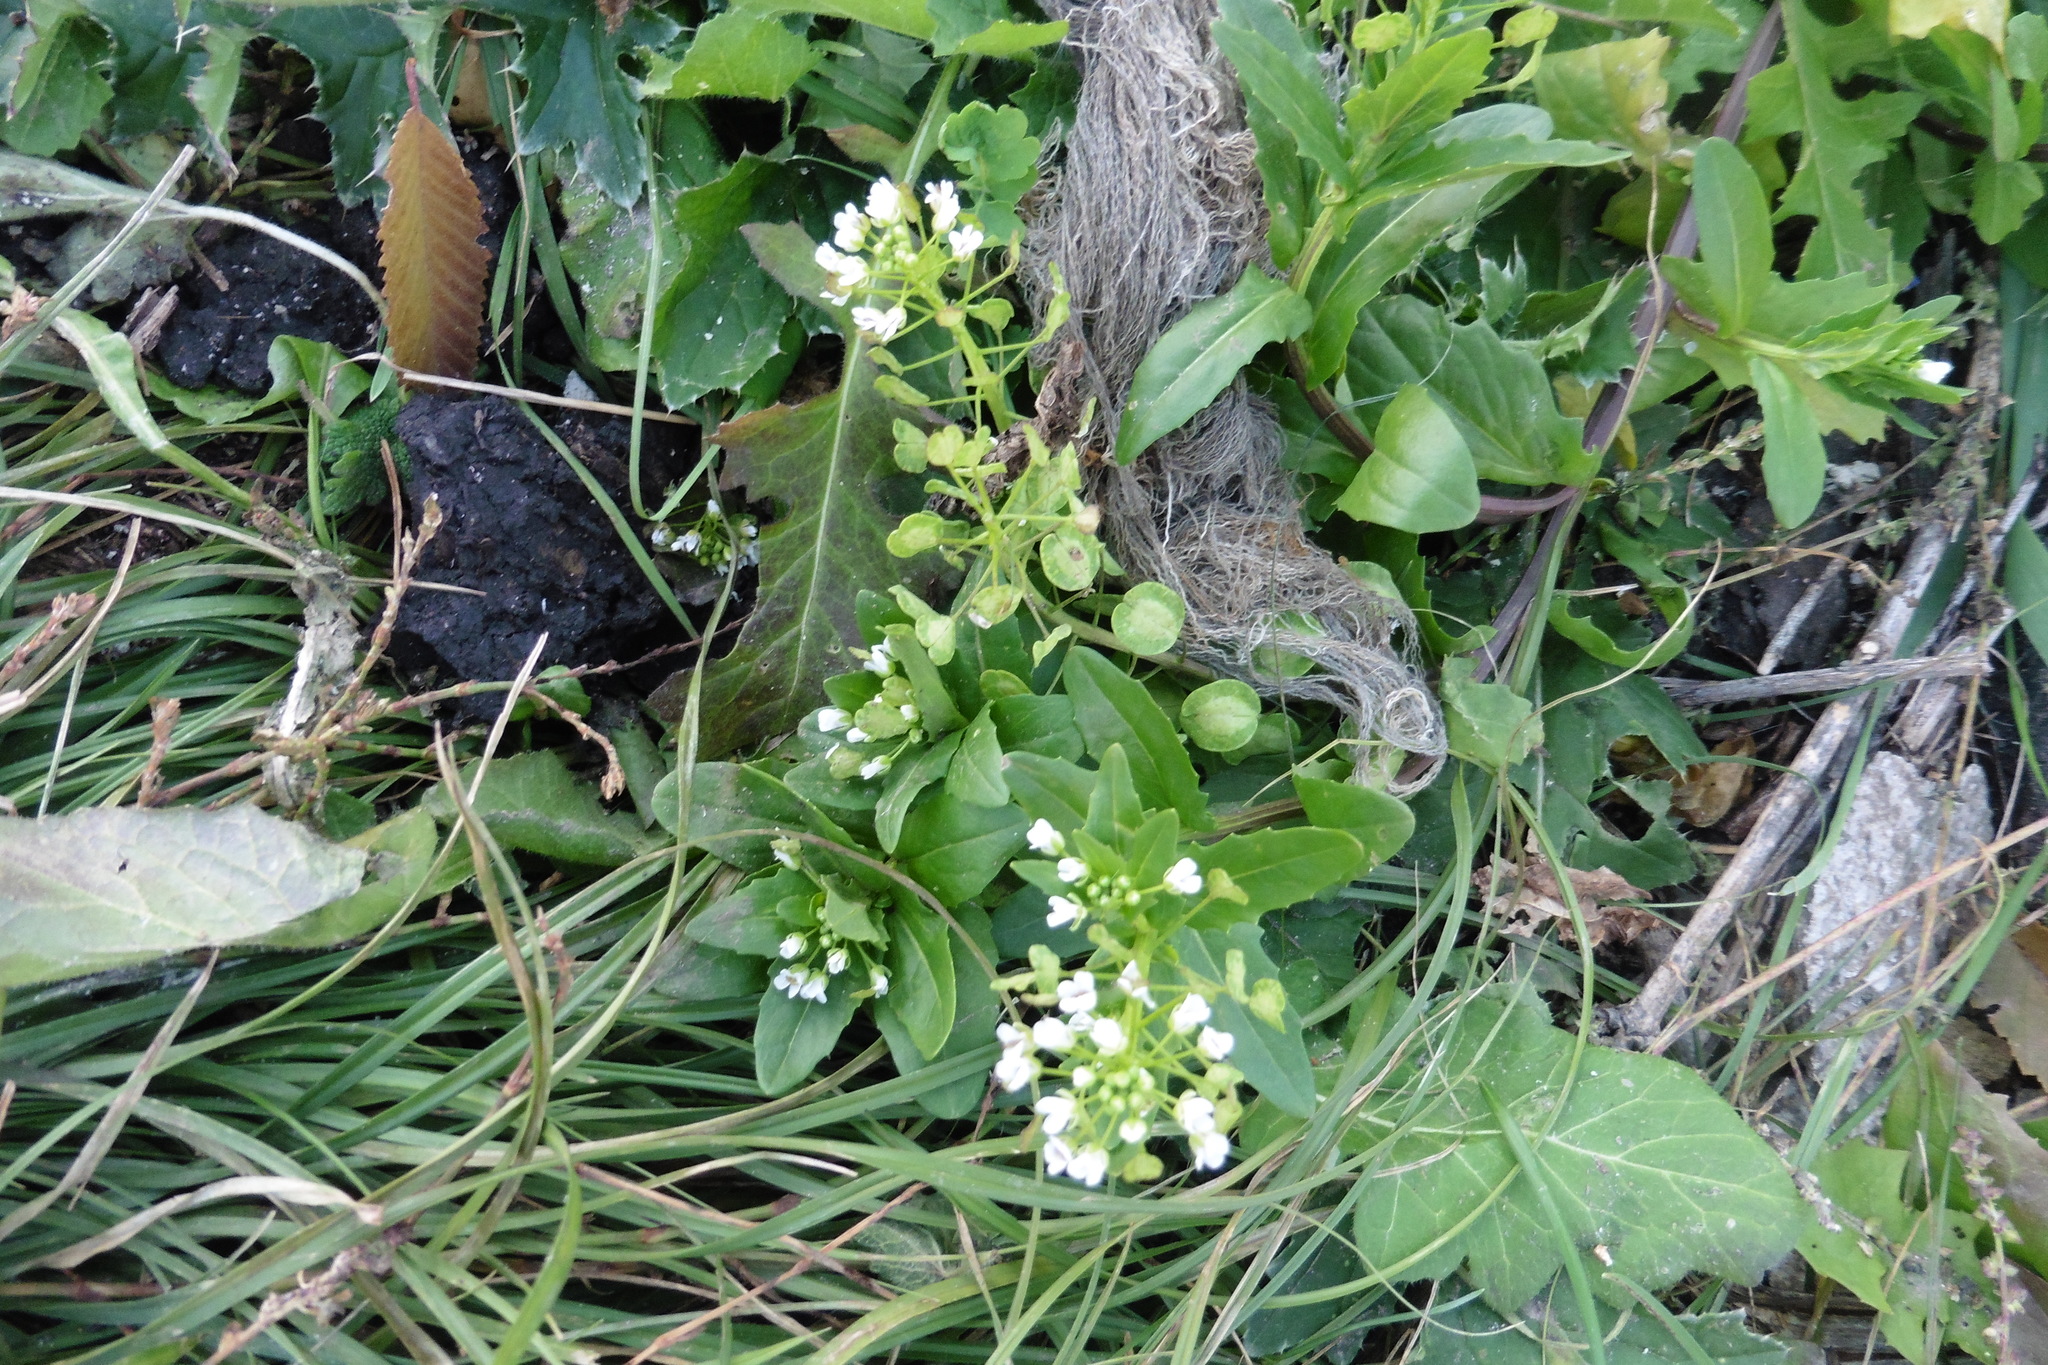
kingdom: Plantae
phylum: Tracheophyta
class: Magnoliopsida
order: Brassicales
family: Brassicaceae
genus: Thlaspi
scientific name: Thlaspi arvense
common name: Field pennycress
